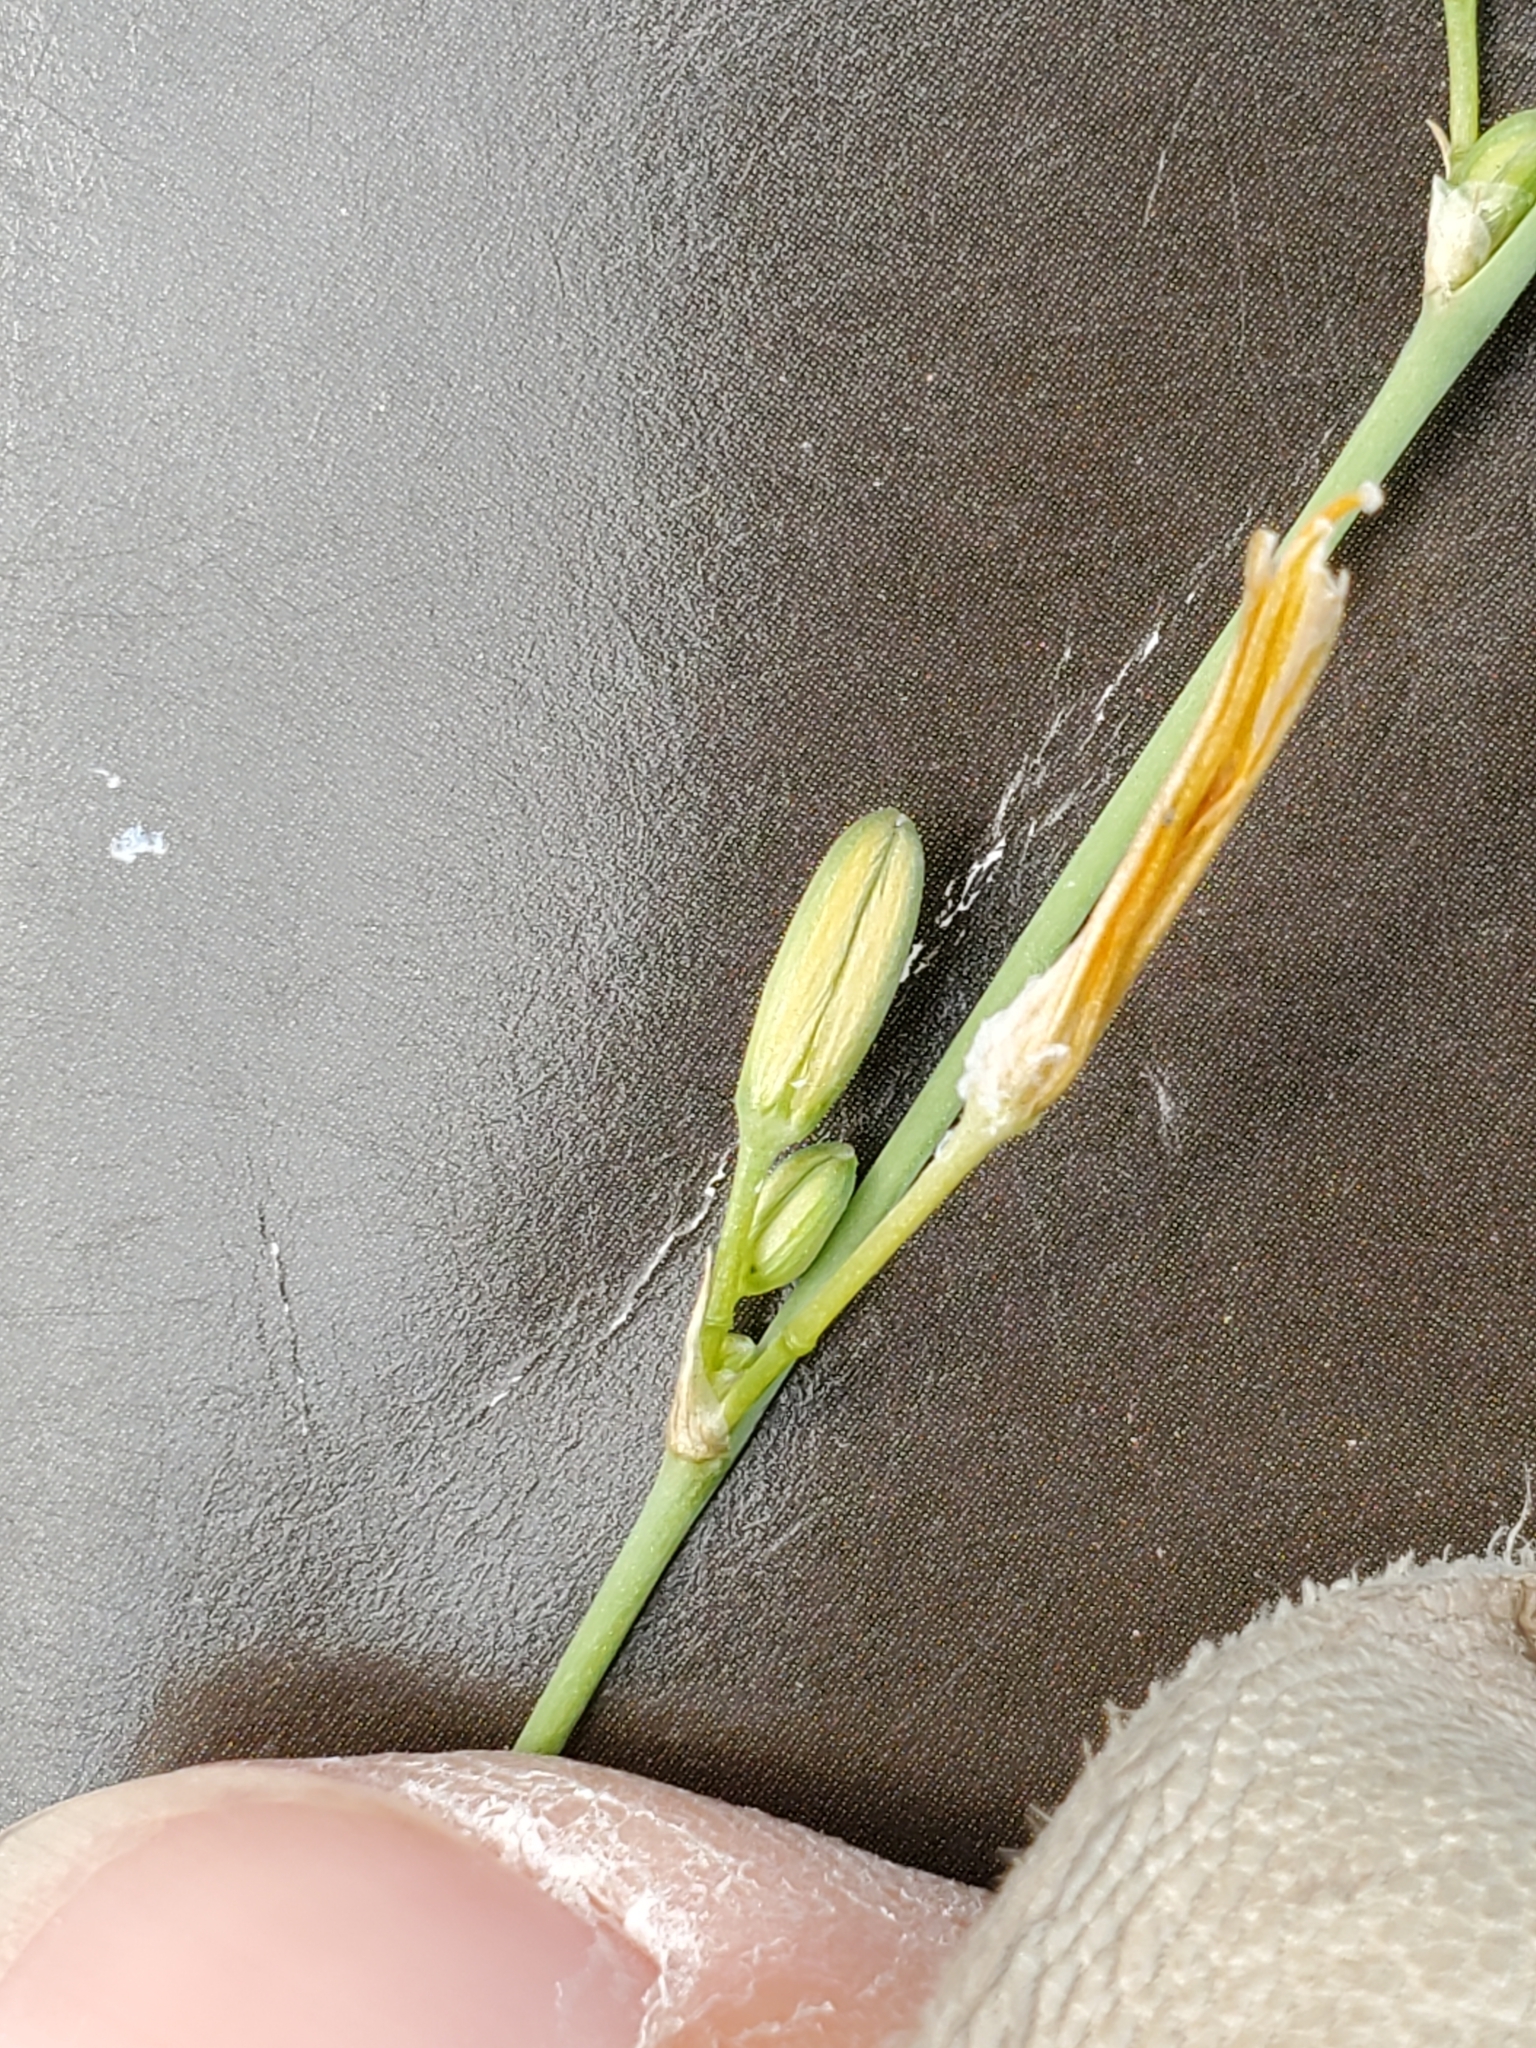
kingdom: Plantae
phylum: Tracheophyta
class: Liliopsida
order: Asparagales
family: Asparagaceae
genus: Echeandia
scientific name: Echeandia flavescens
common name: Amberlily
